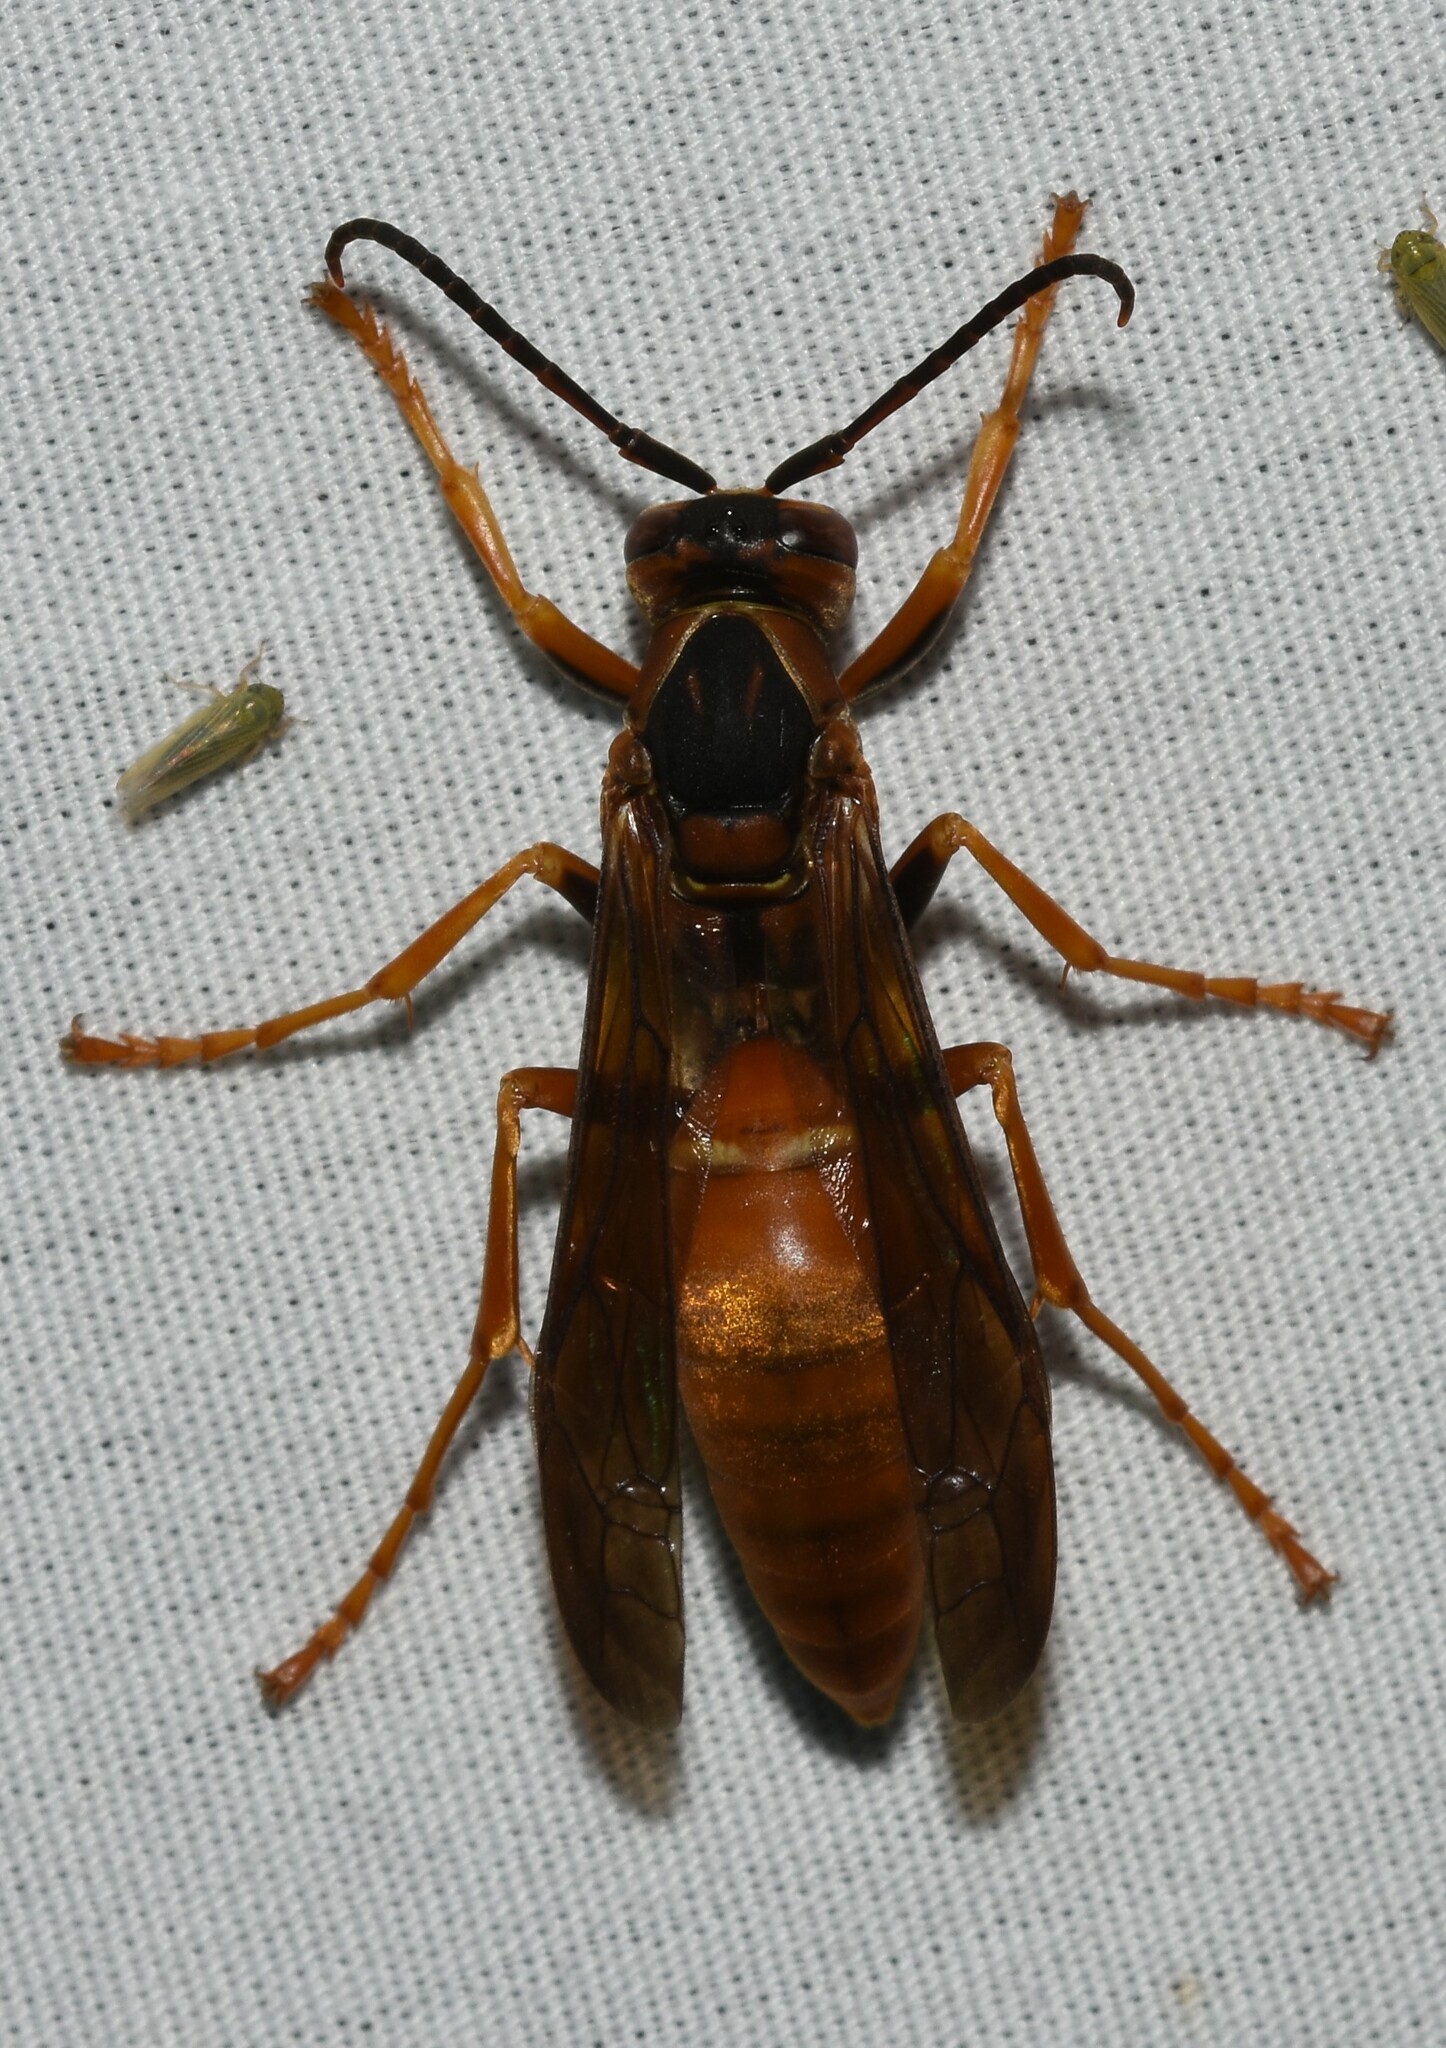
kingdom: Animalia
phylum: Arthropoda
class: Insecta
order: Hymenoptera
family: Eumenidae
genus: Polistes
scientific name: Polistes carolina
